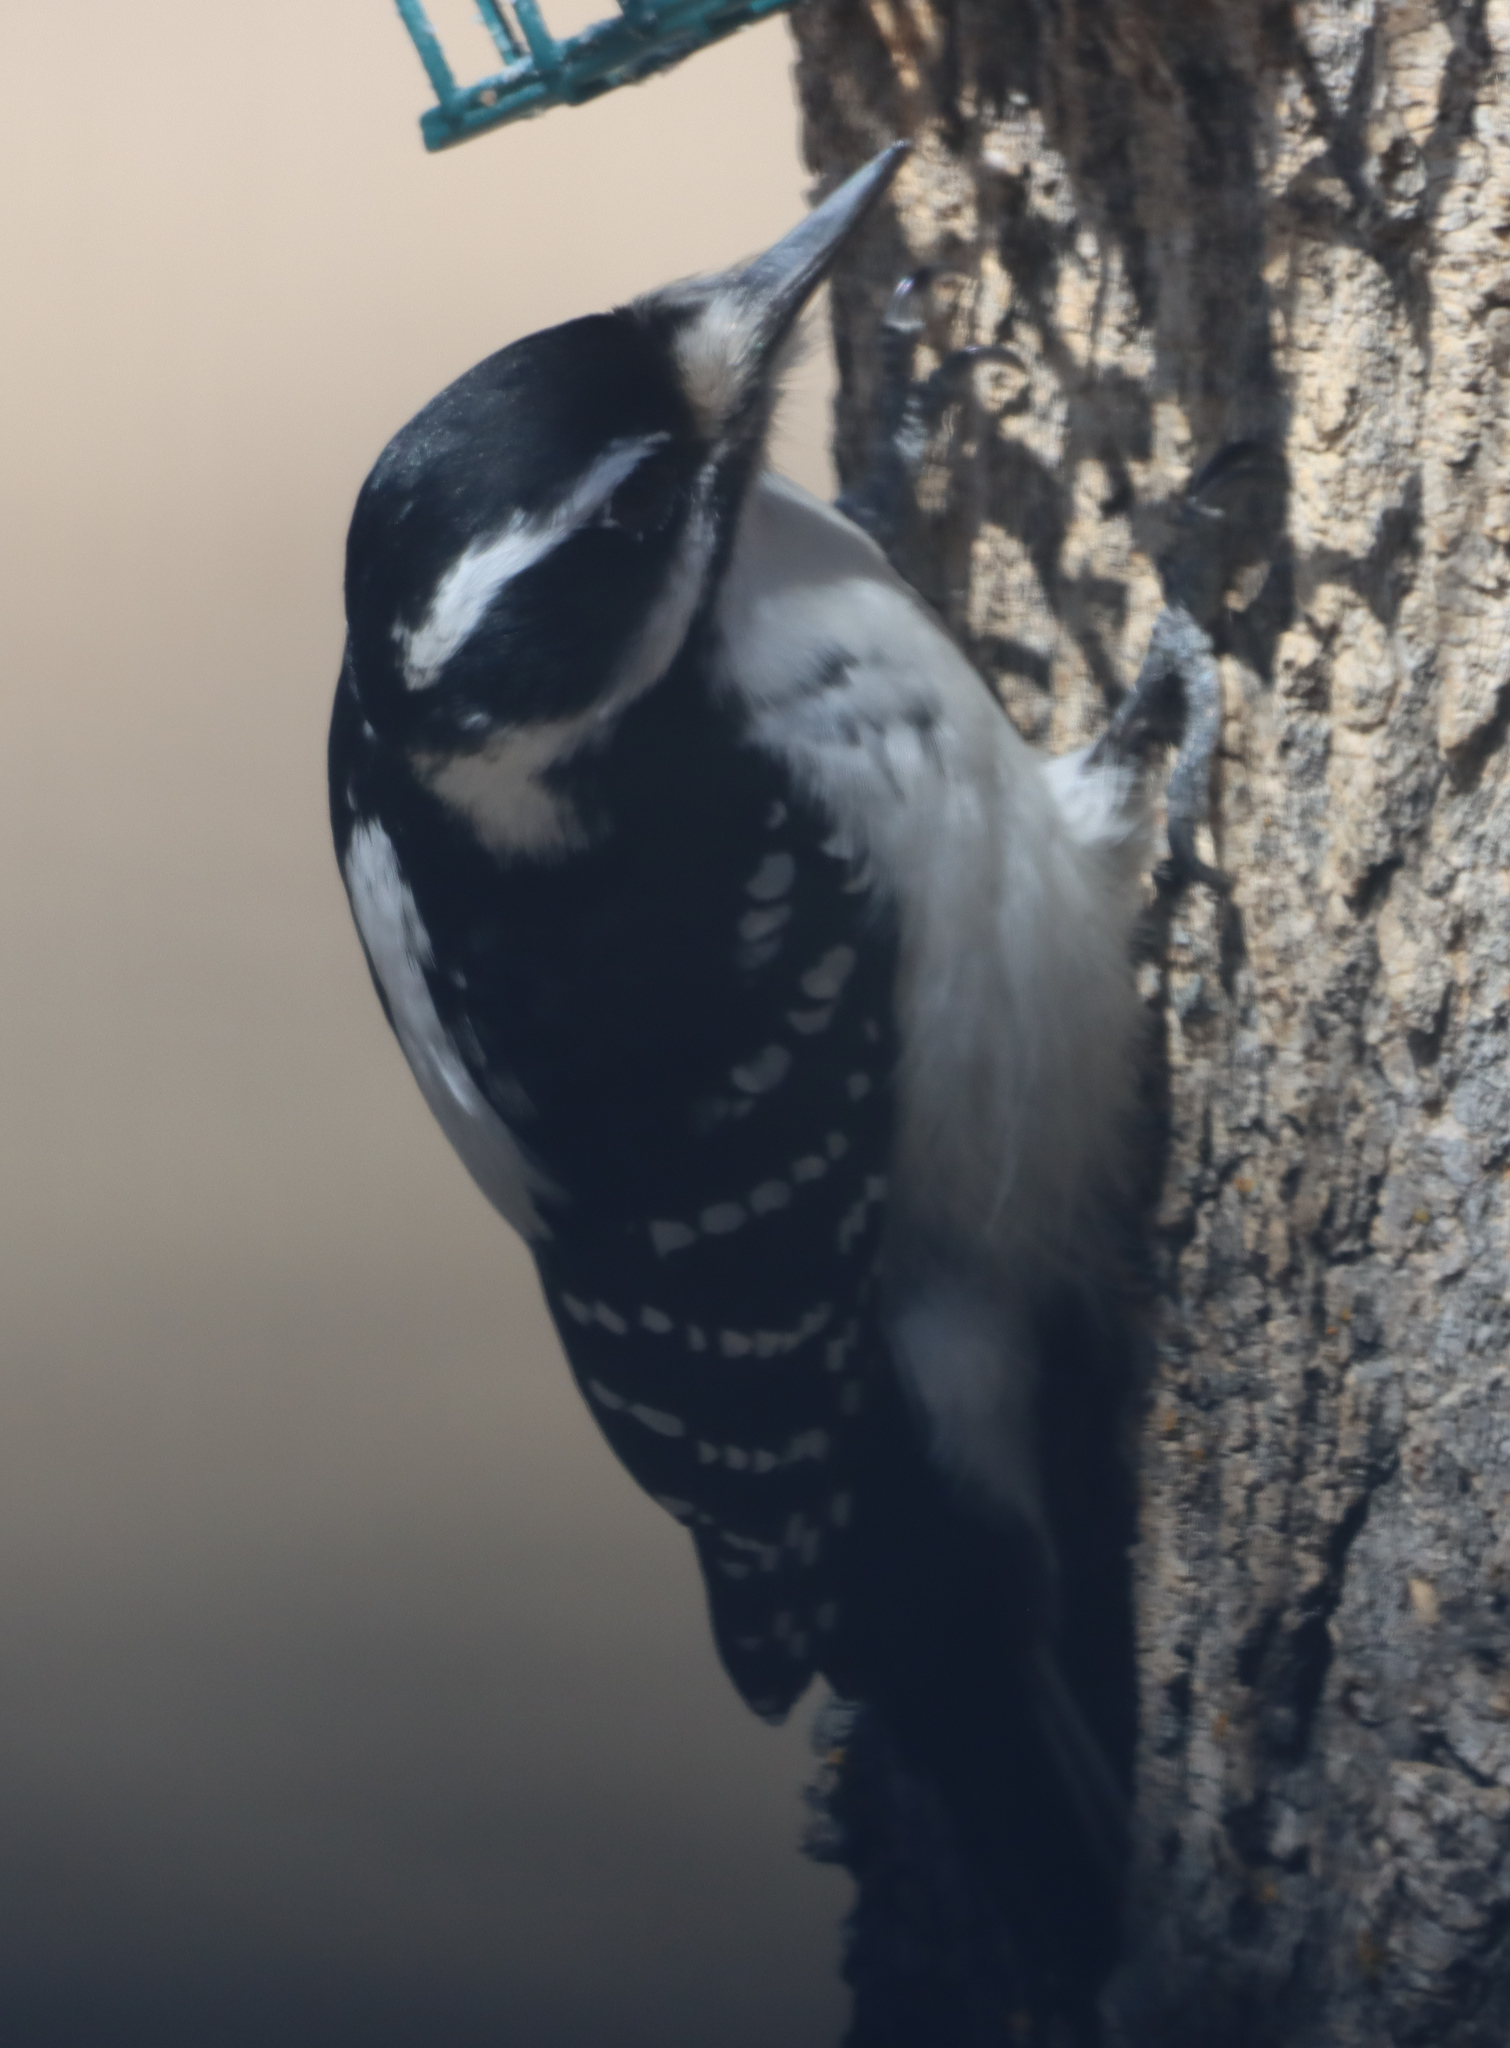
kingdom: Animalia
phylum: Chordata
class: Aves
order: Piciformes
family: Picidae
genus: Leuconotopicus
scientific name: Leuconotopicus villosus
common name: Hairy woodpecker
